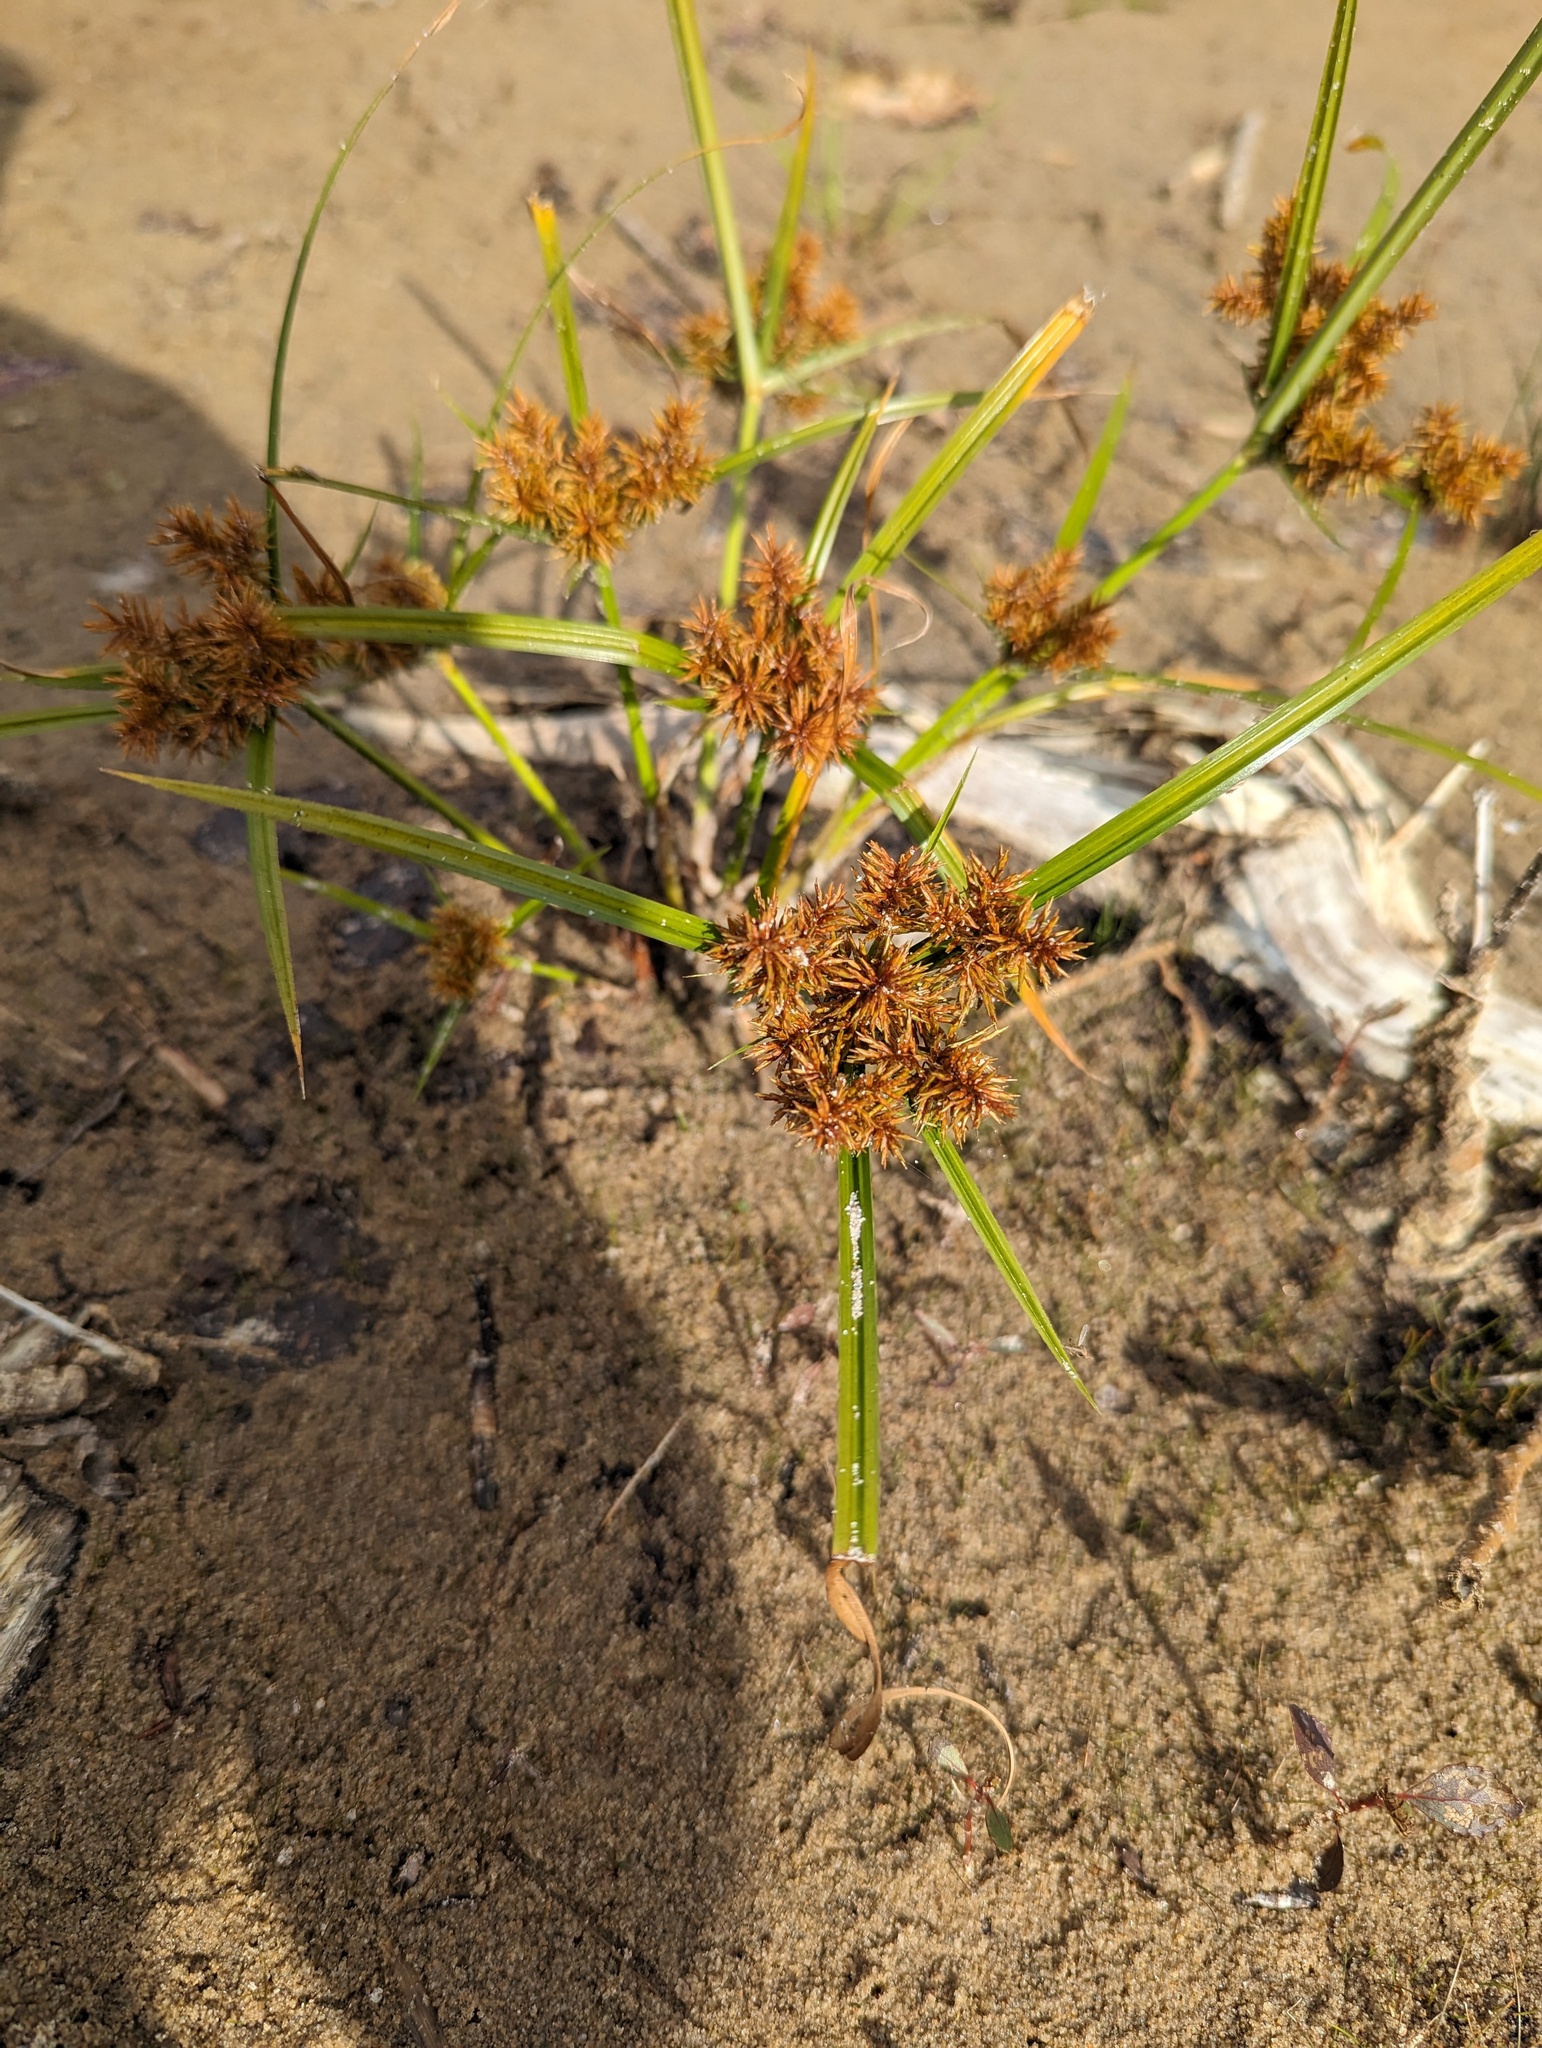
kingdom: Plantae
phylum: Tracheophyta
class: Liliopsida
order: Poales
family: Cyperaceae
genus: Cyperus
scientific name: Cyperus odoratus
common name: Fragrant flatsedge
